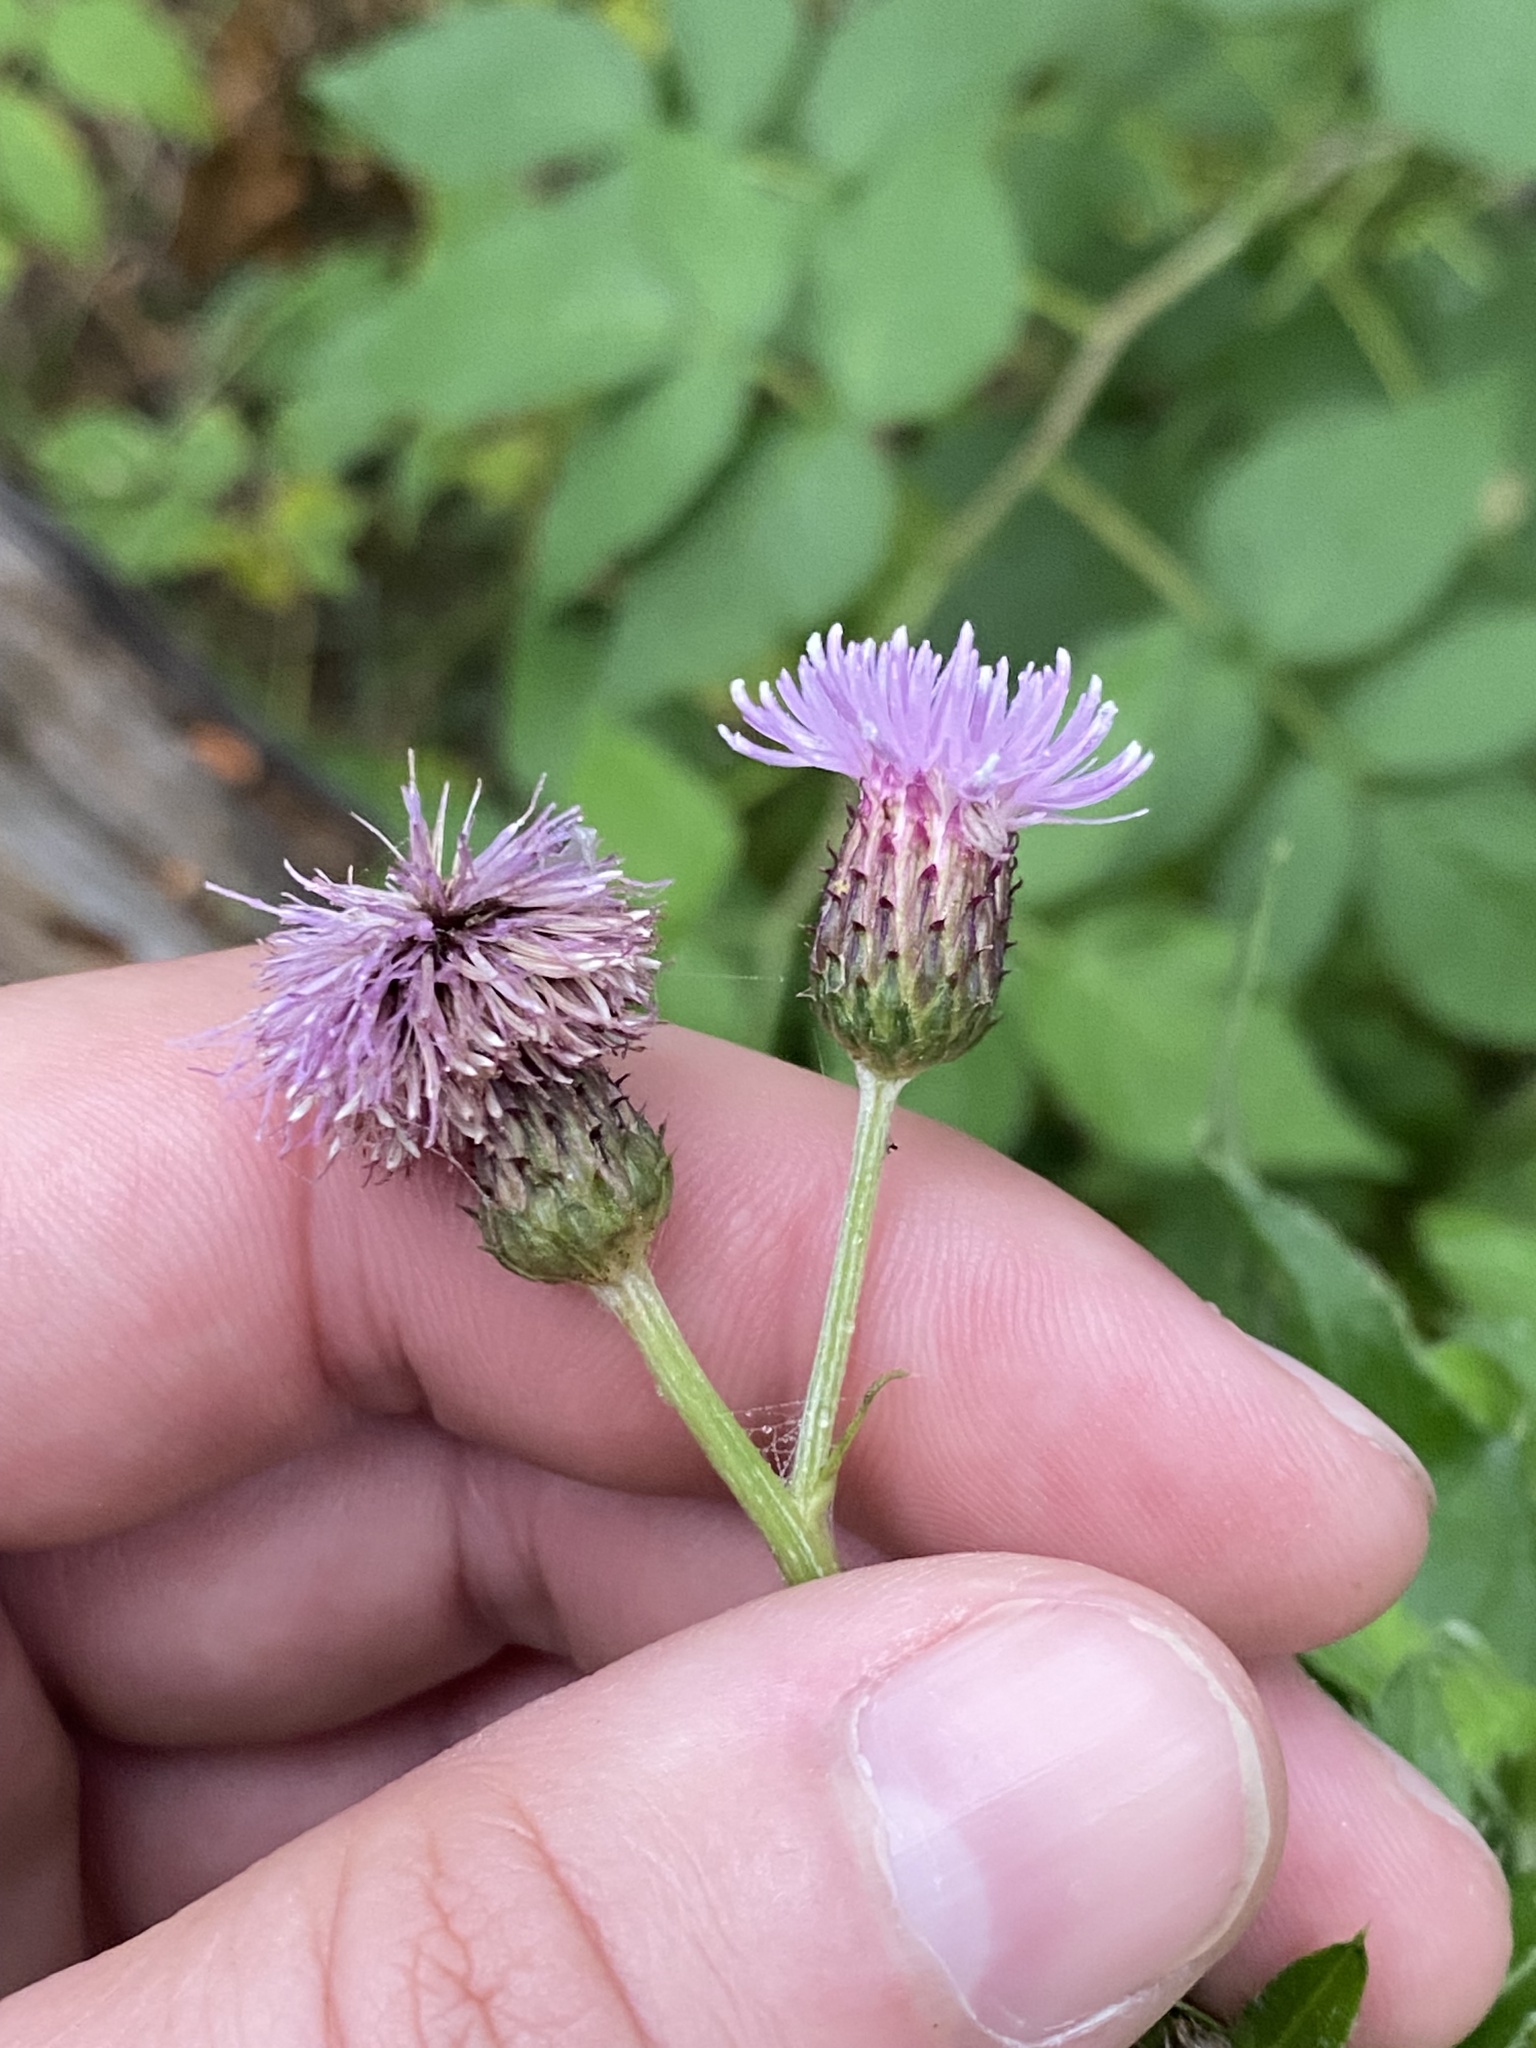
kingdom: Plantae
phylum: Tracheophyta
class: Magnoliopsida
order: Asterales
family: Asteraceae
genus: Cirsium
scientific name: Cirsium arvense
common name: Creeping thistle
